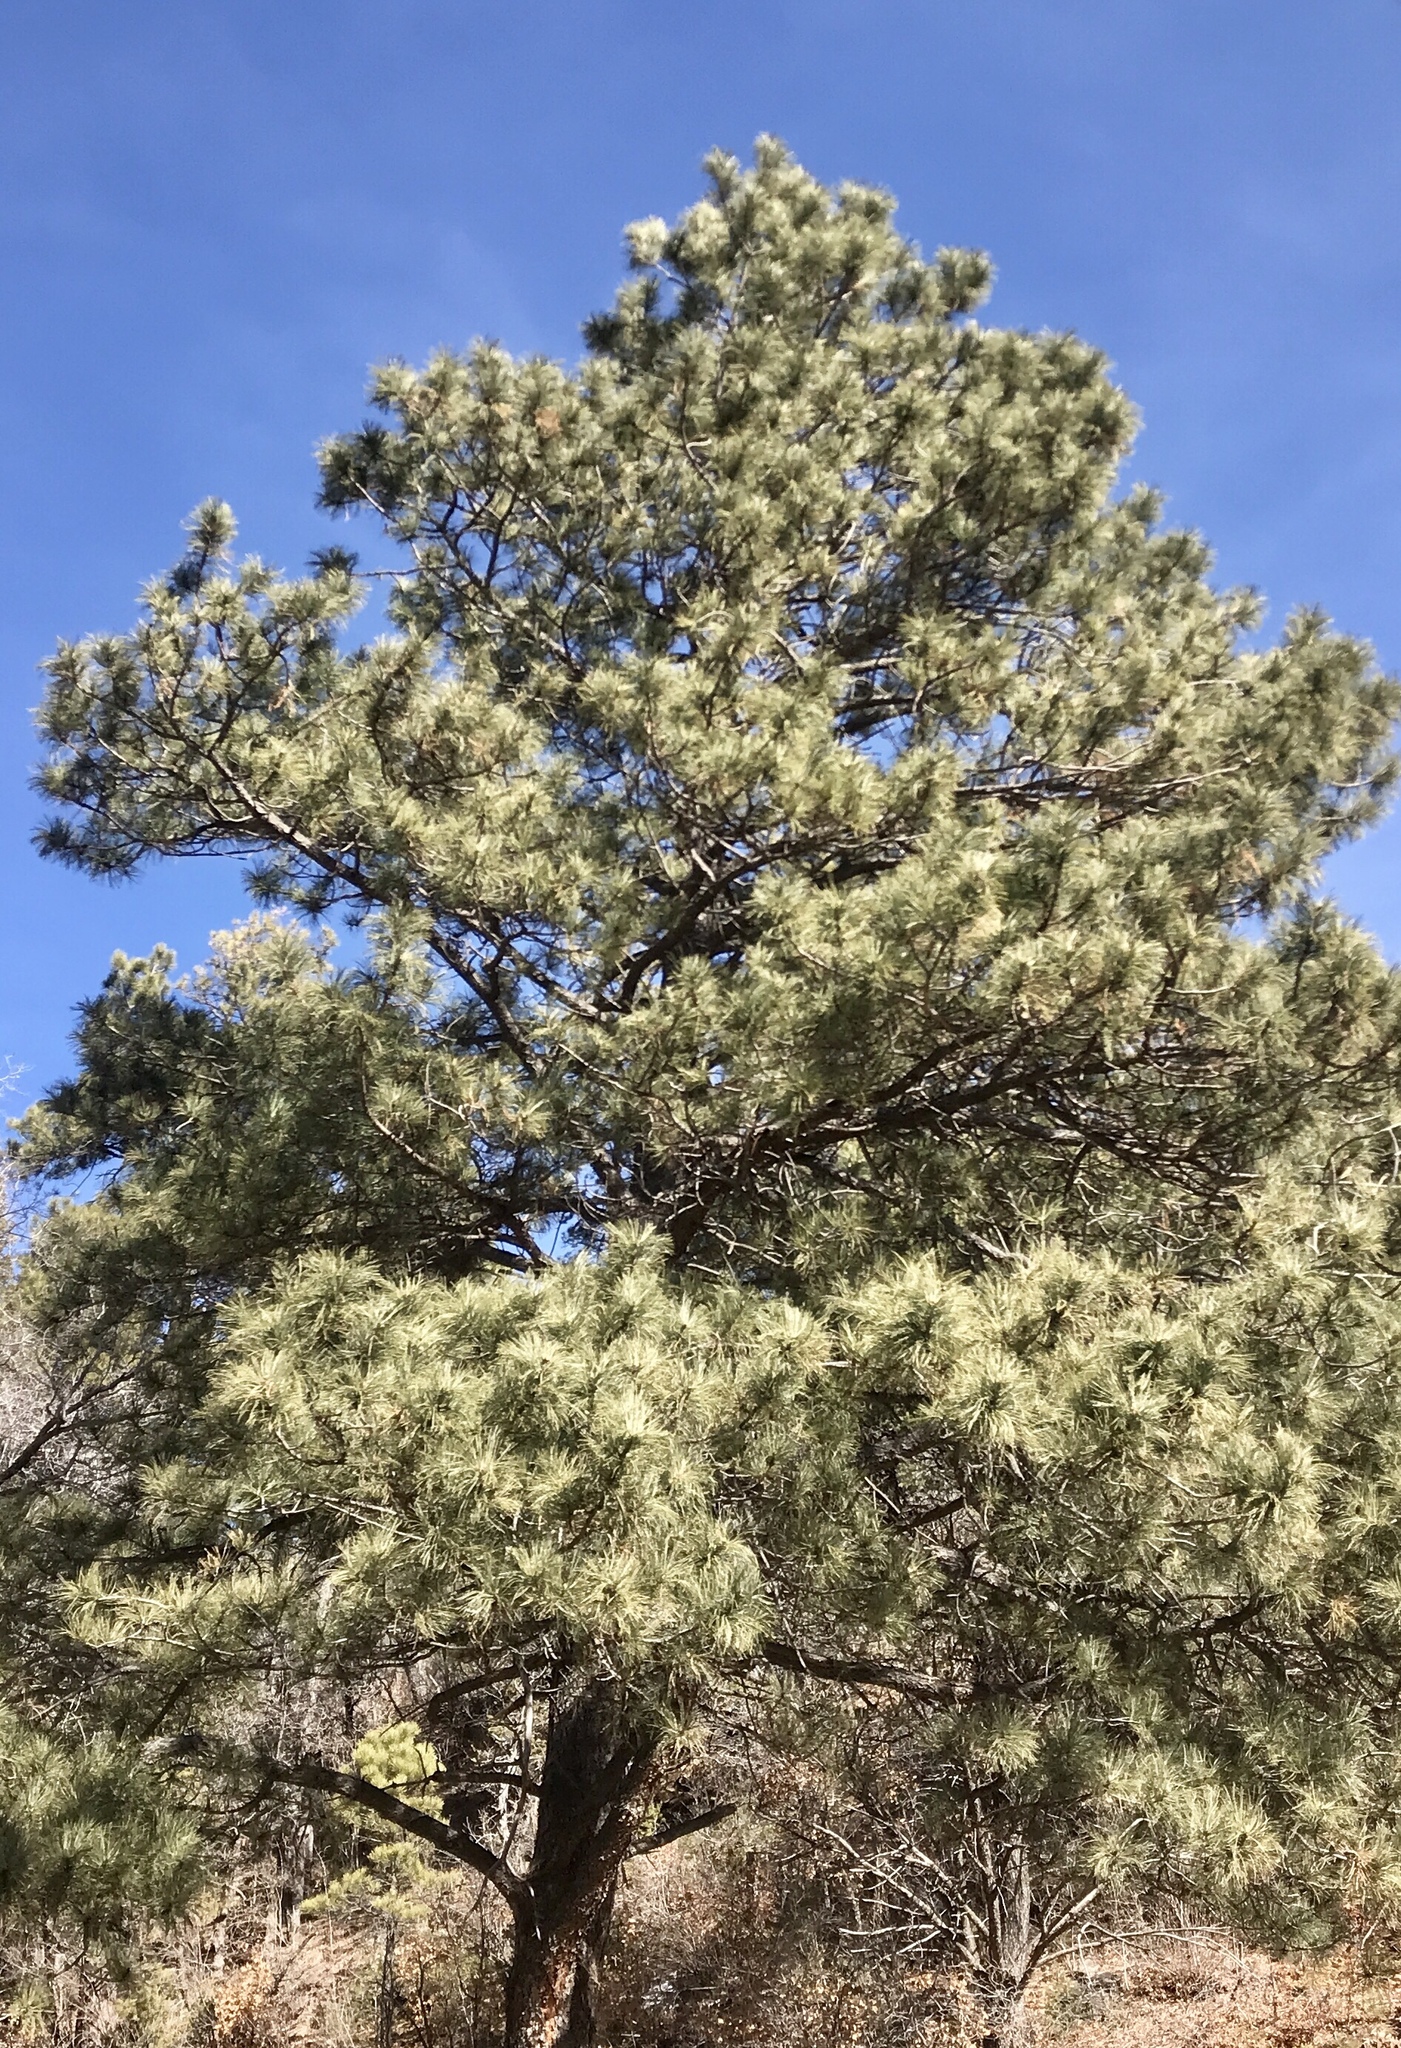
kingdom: Plantae
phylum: Tracheophyta
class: Pinopsida
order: Pinales
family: Pinaceae
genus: Pinus
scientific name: Pinus ponderosa
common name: Western yellow-pine
